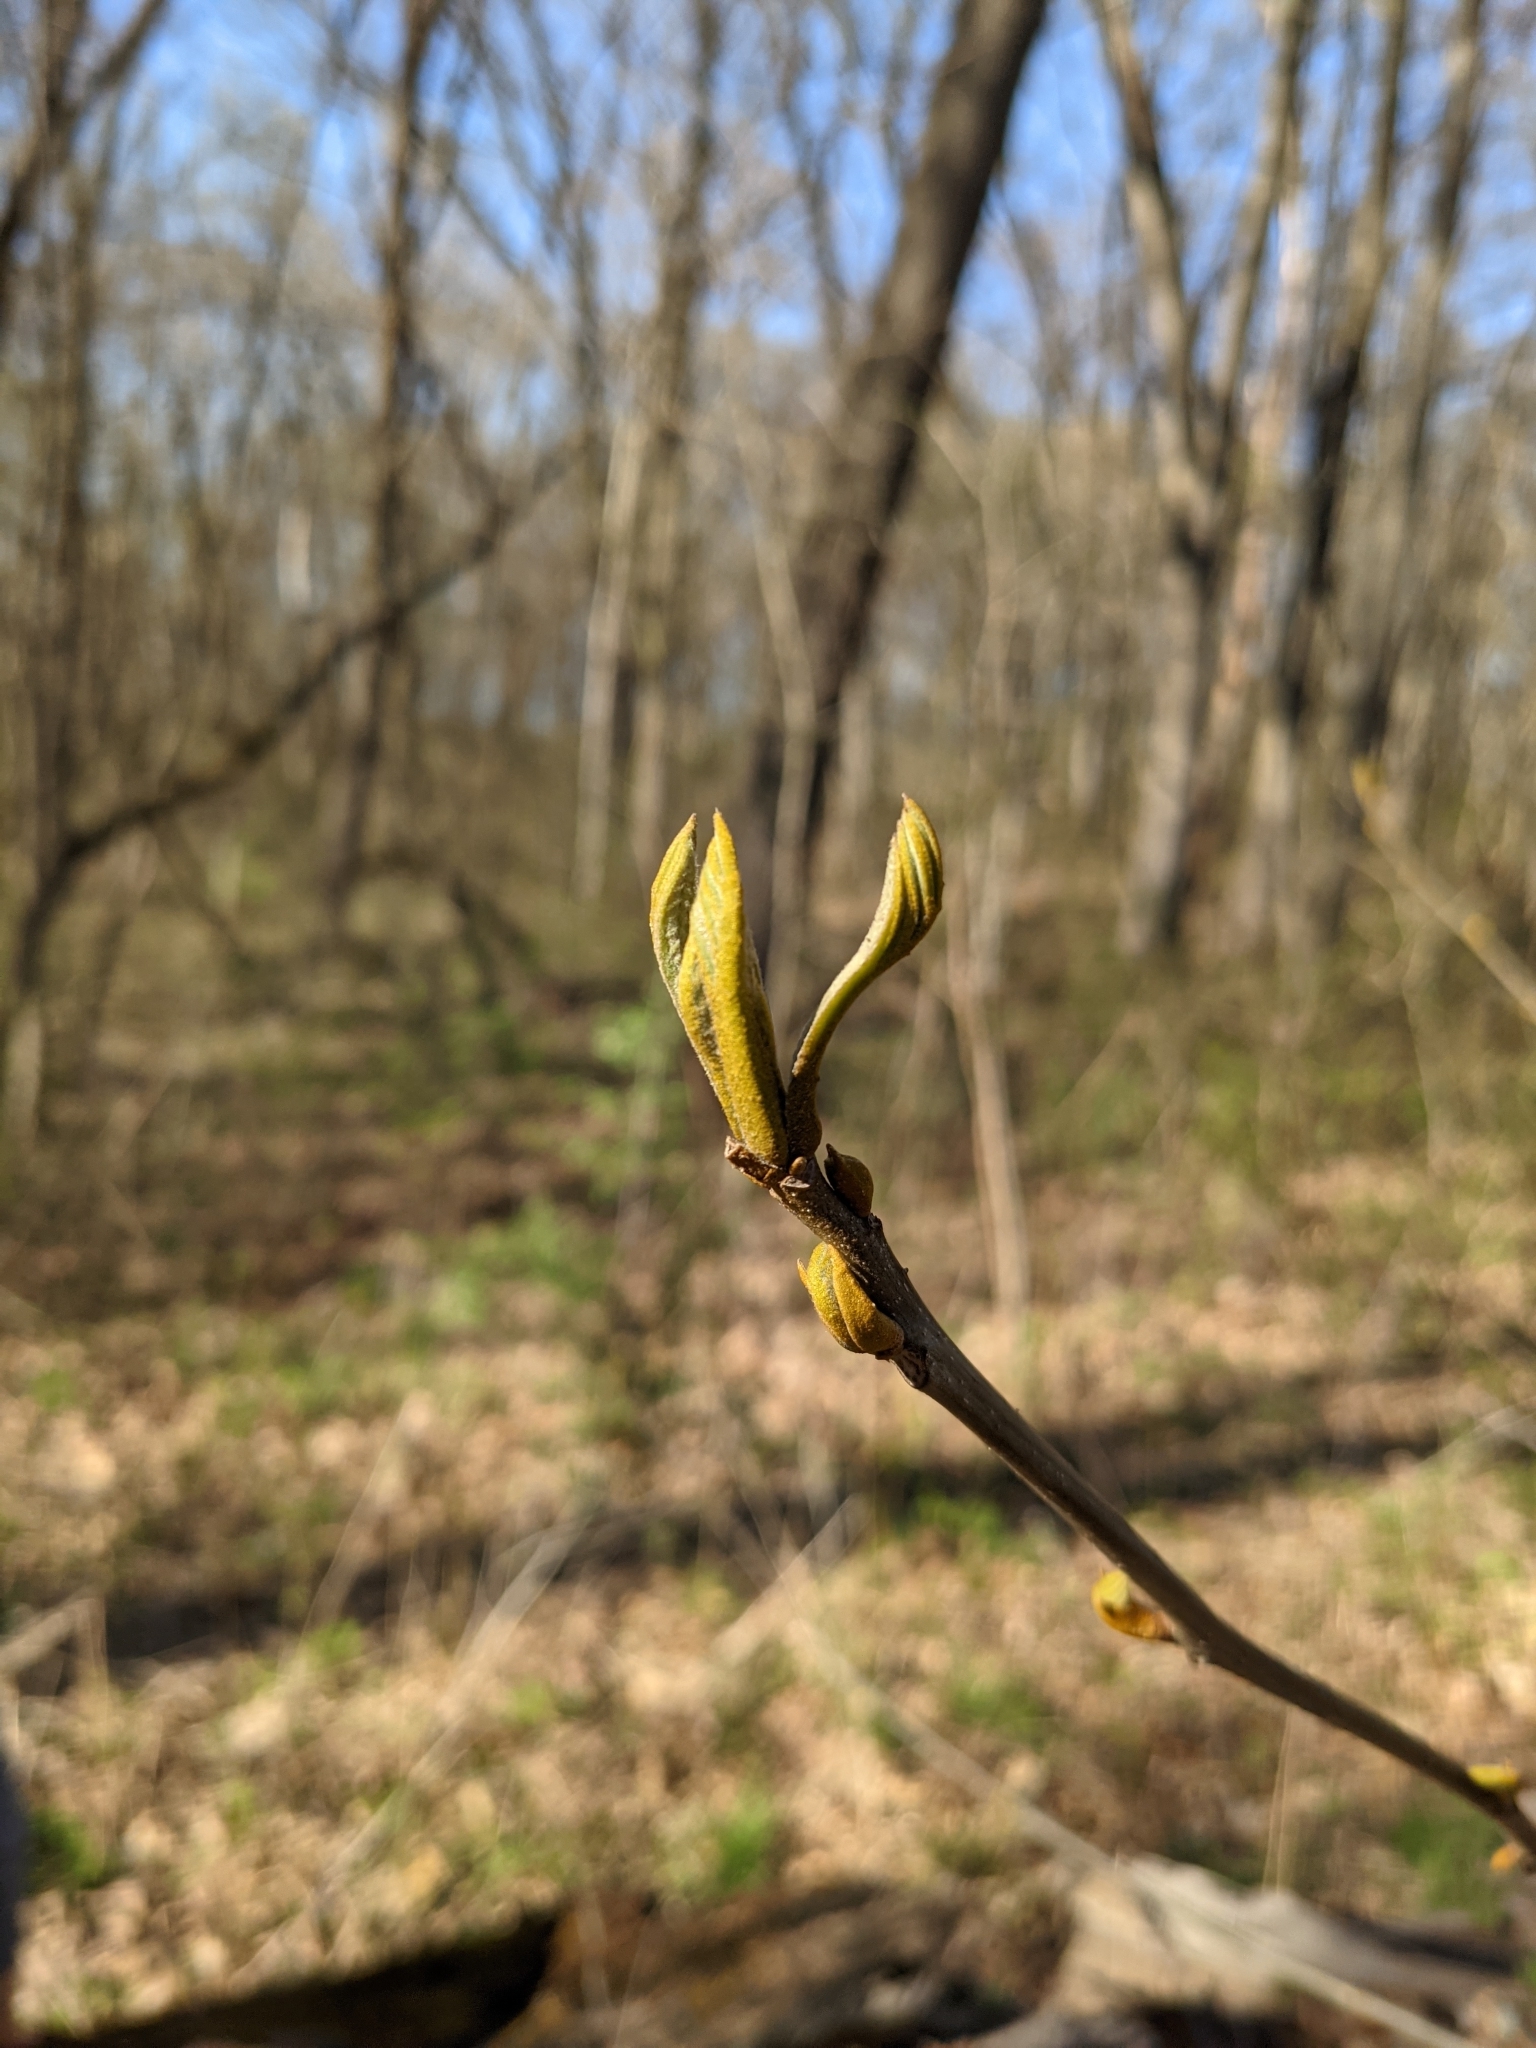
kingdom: Plantae
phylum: Tracheophyta
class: Magnoliopsida
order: Fagales
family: Juglandaceae
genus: Carya
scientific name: Carya cordiformis
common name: Bitternut hickory
